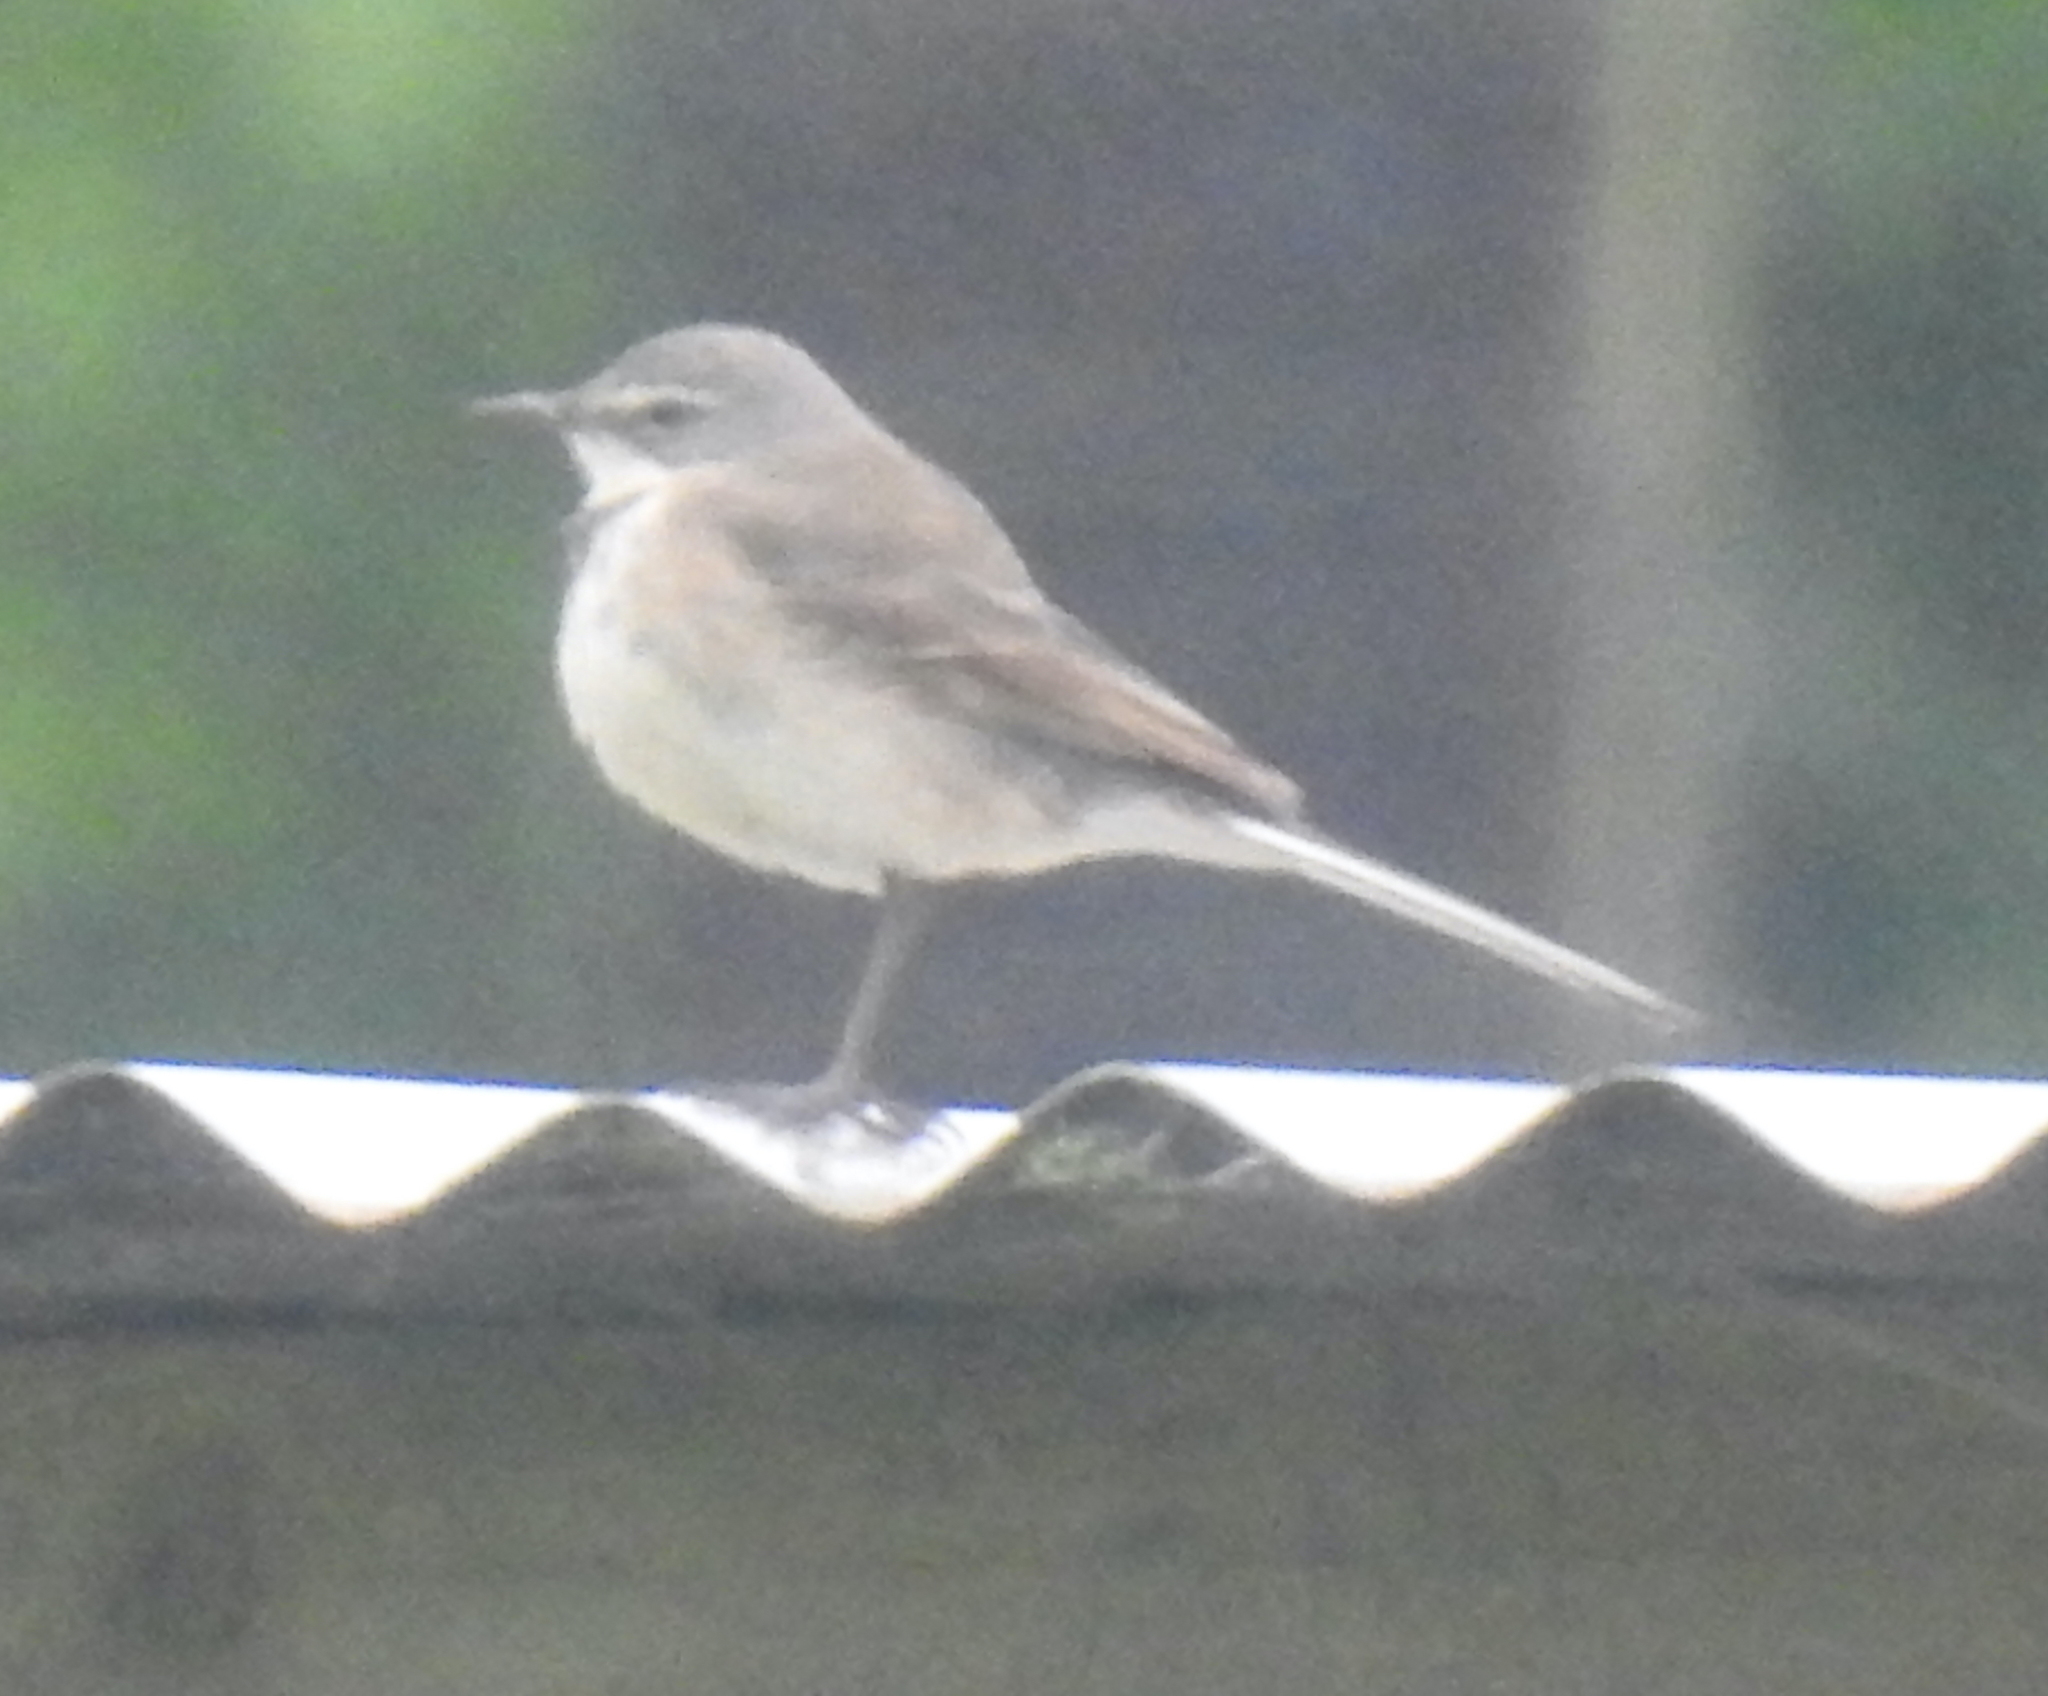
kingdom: Animalia
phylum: Chordata
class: Aves
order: Passeriformes
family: Motacillidae
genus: Motacilla
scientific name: Motacilla capensis
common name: Cape wagtail
